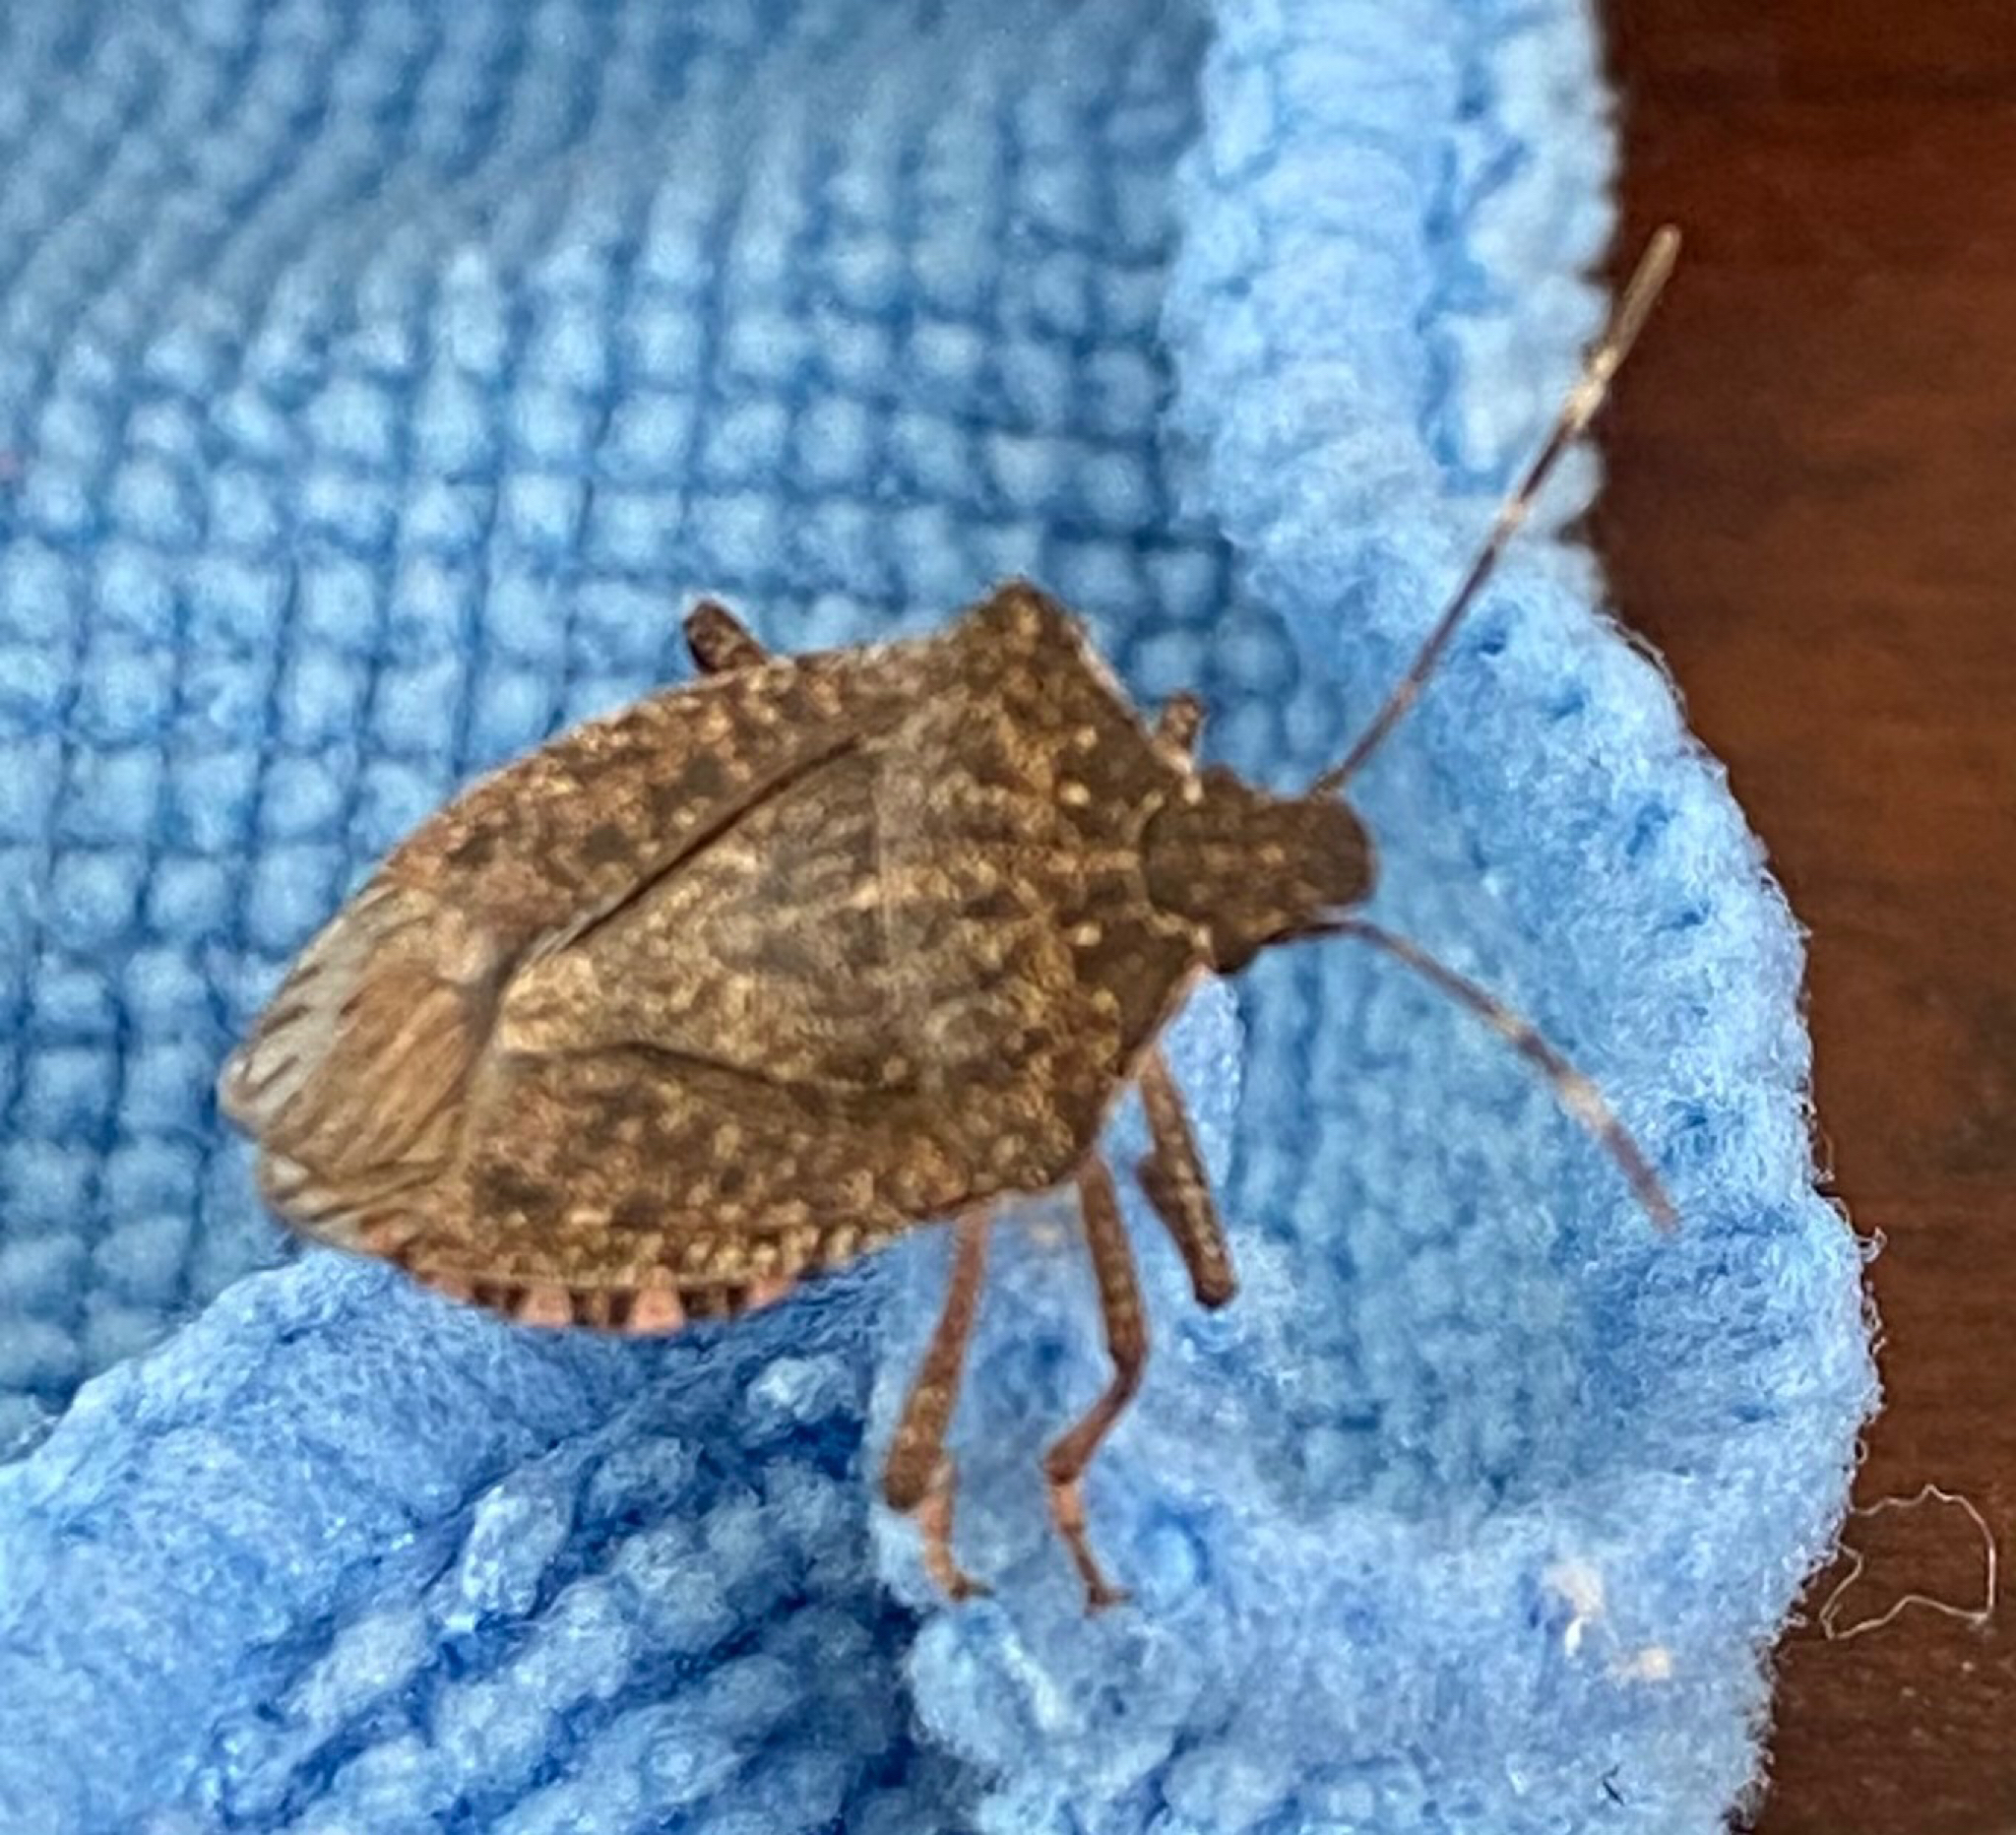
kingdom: Animalia
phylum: Arthropoda
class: Insecta
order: Hemiptera
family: Pentatomidae
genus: Halyomorpha
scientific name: Halyomorpha halys
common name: Brown marmorated stink bug
